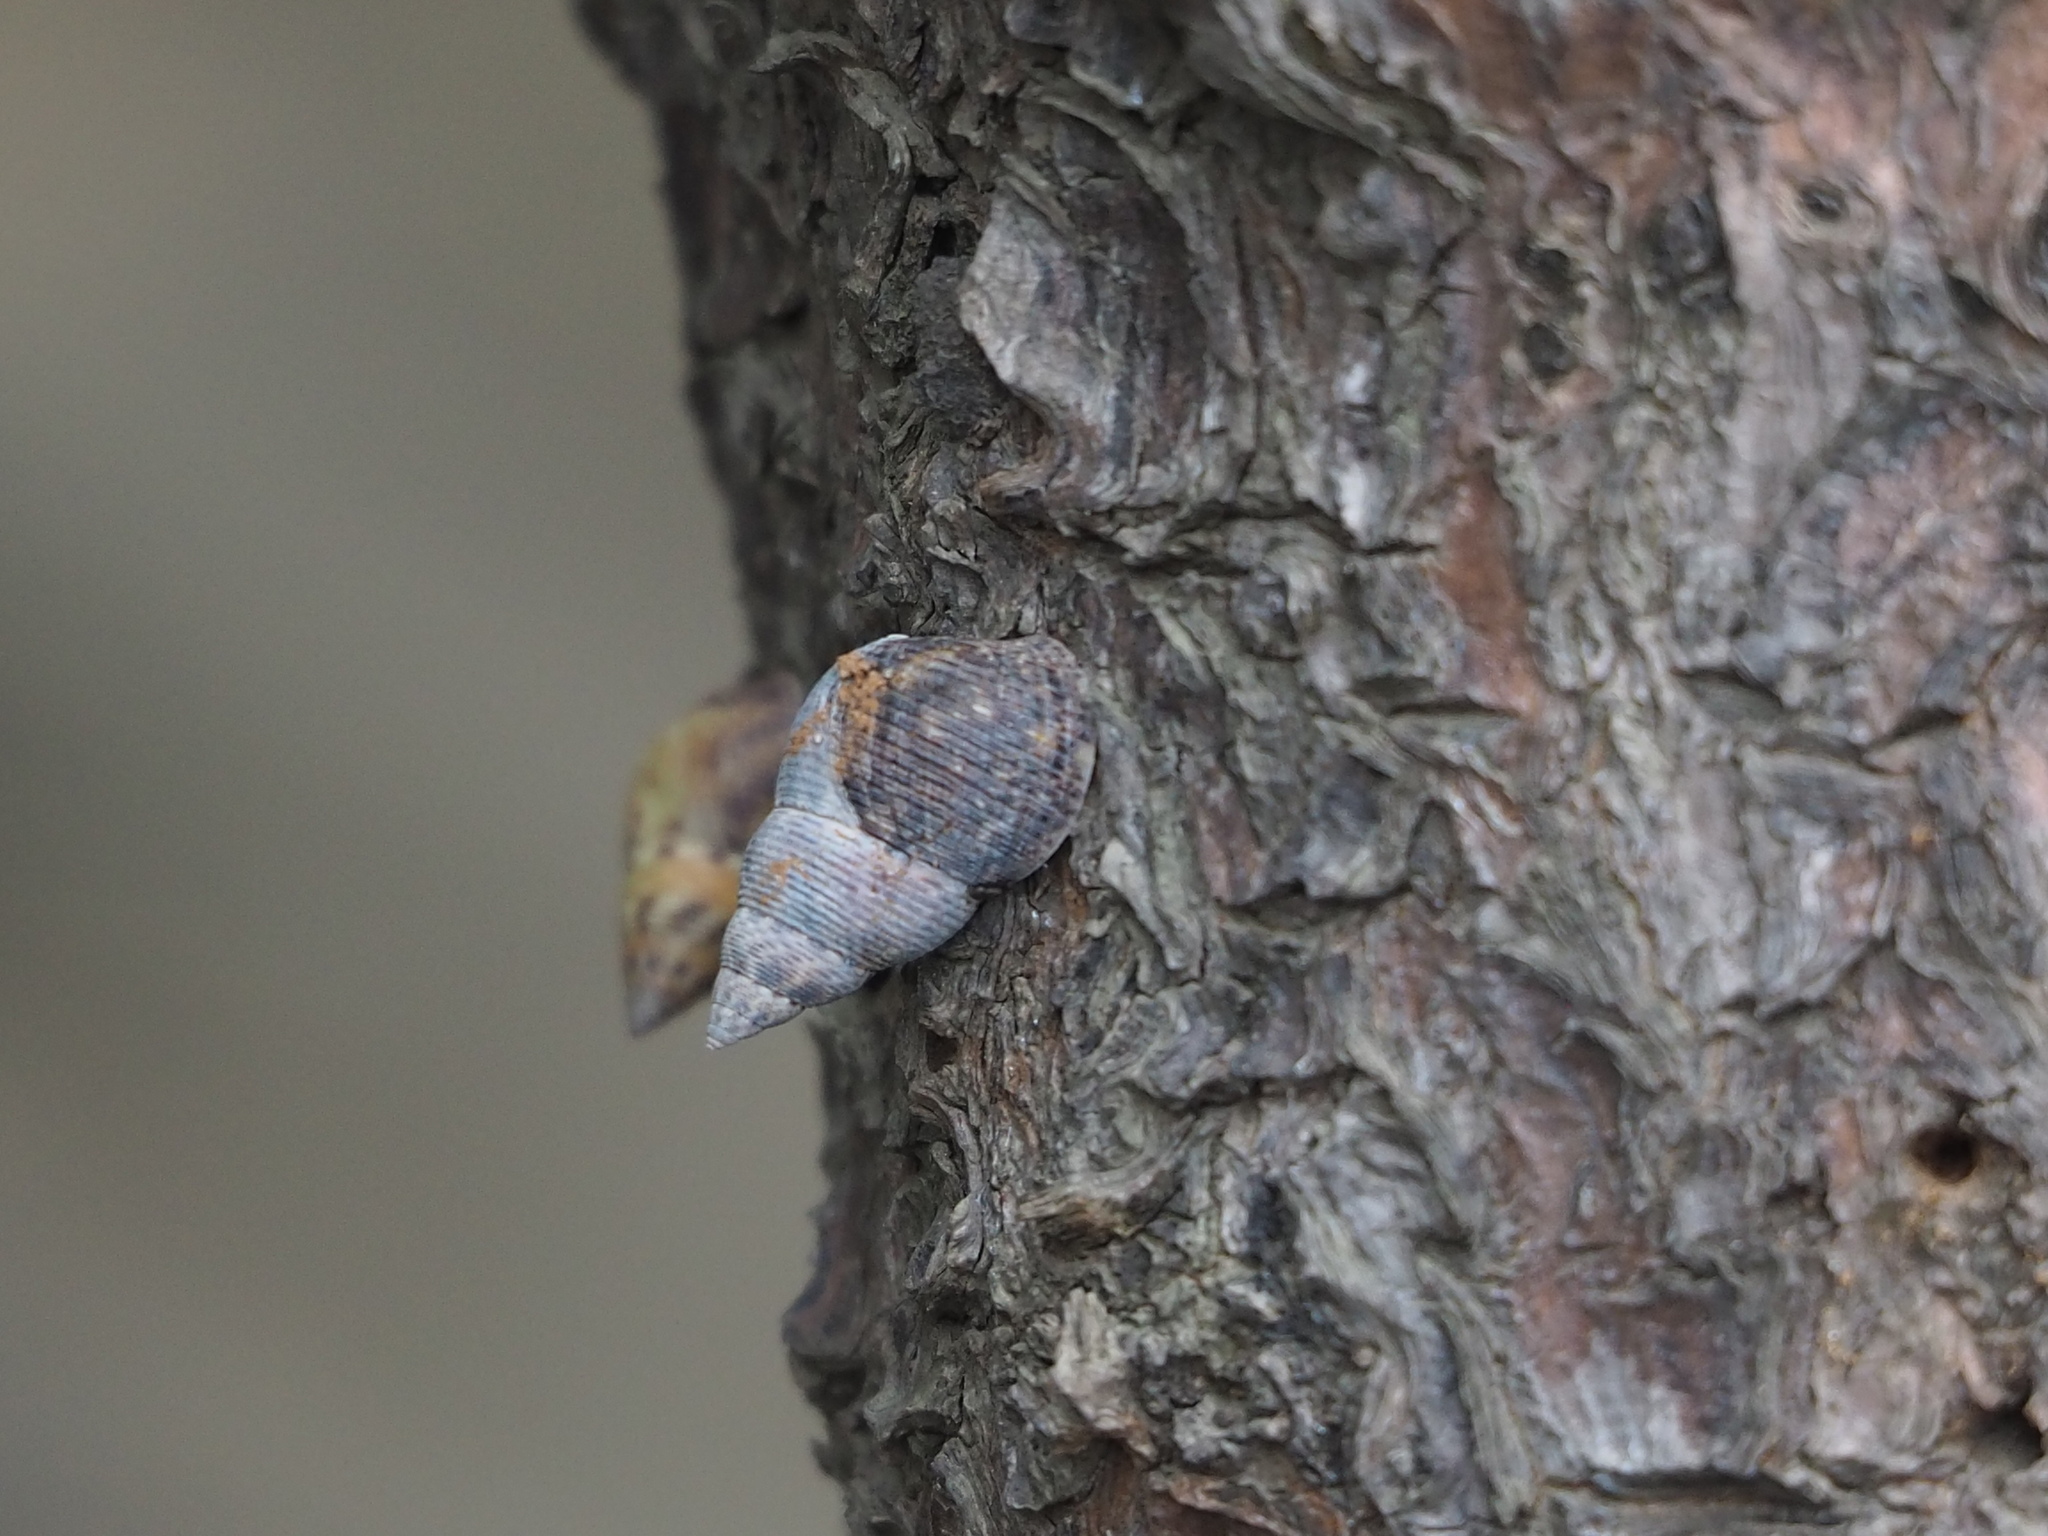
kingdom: Animalia
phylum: Mollusca
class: Gastropoda
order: Littorinimorpha
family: Littorinidae
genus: Littoraria
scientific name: Littoraria scabra
